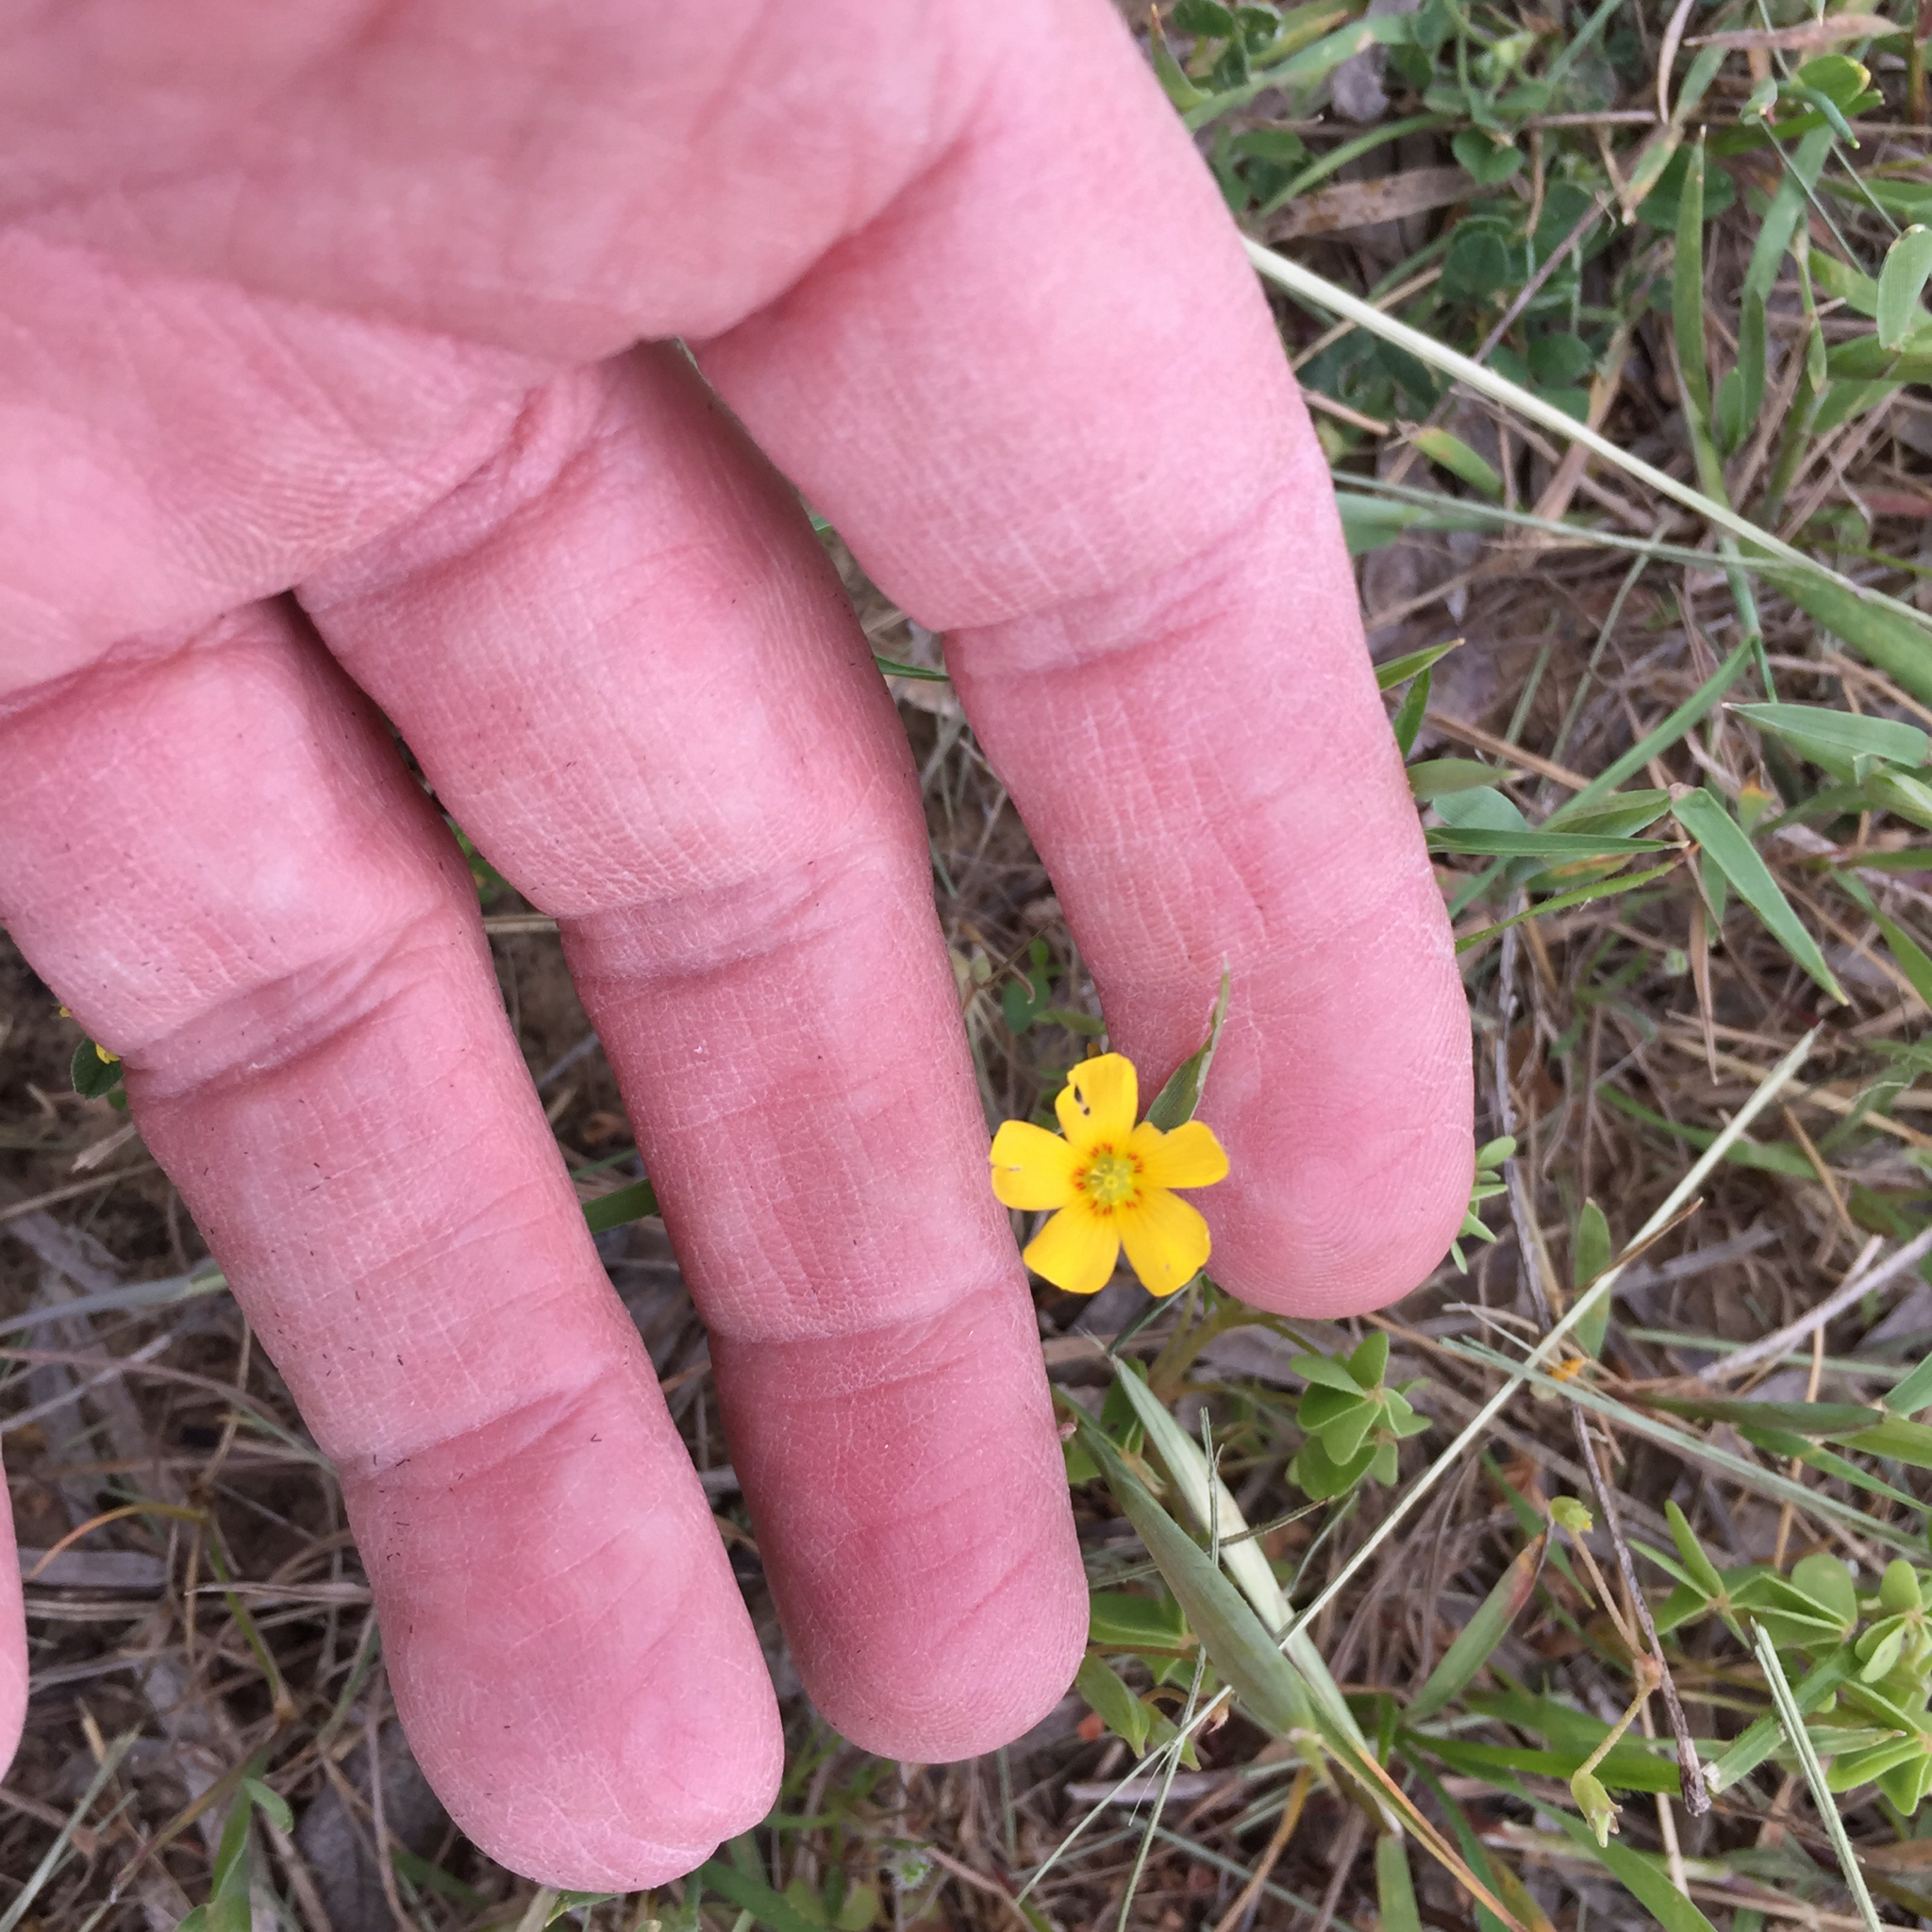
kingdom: Plantae
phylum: Tracheophyta
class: Magnoliopsida
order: Oxalidales
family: Oxalidaceae
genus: Oxalis
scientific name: Oxalis
